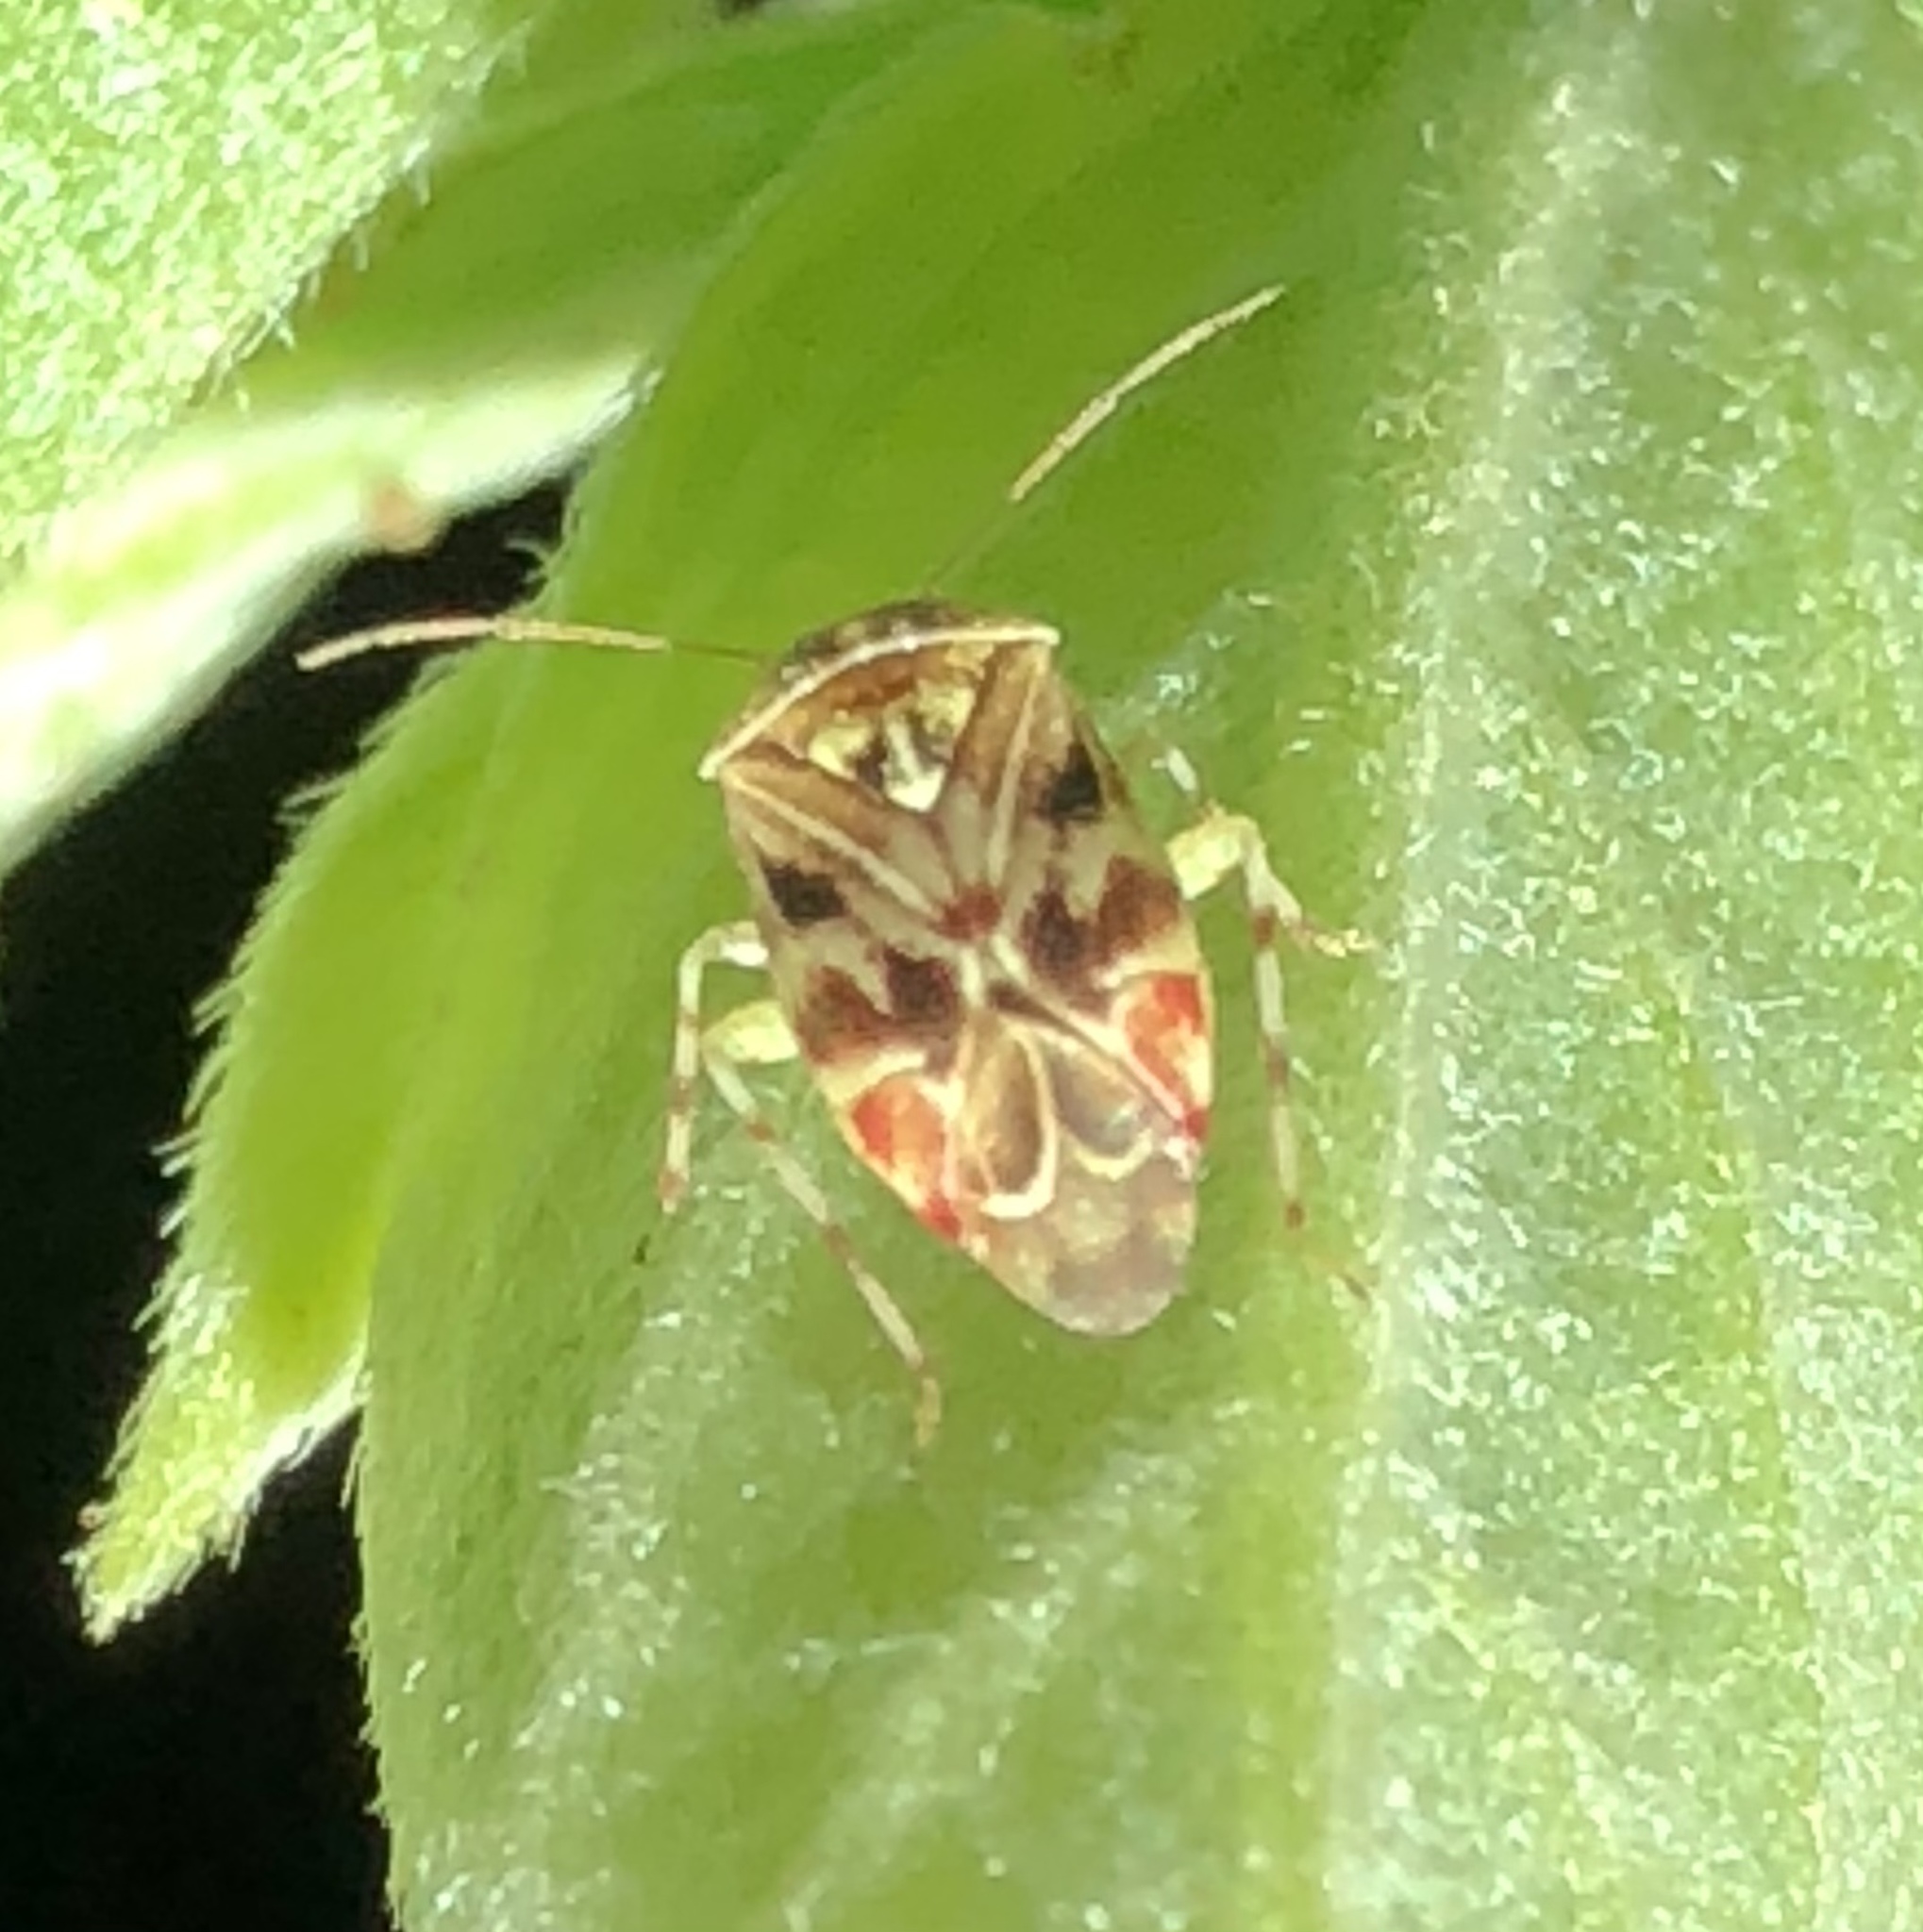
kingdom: Animalia
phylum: Arthropoda
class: Insecta
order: Hemiptera
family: Miridae
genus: Tropidosteptes
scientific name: Tropidosteptes quercicola
